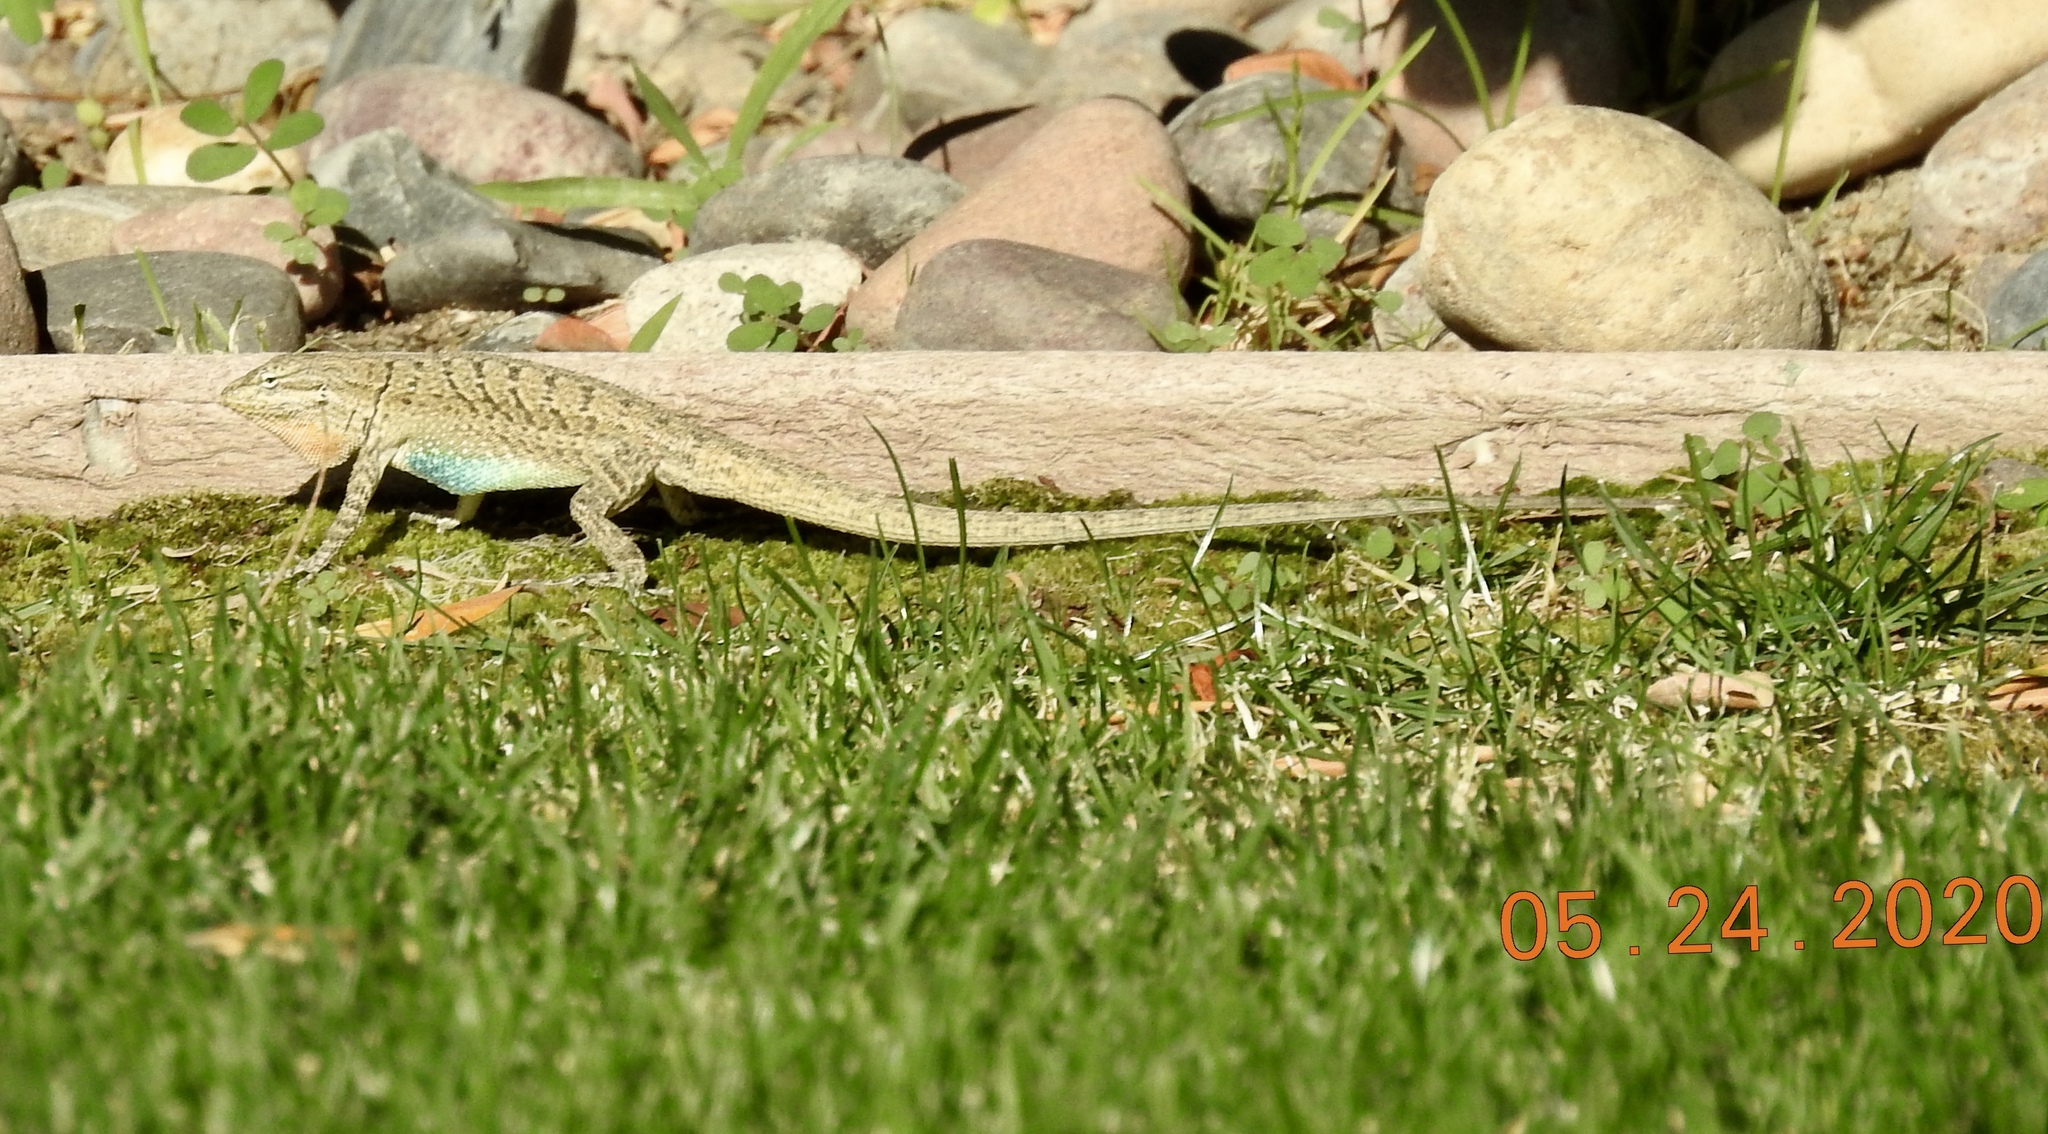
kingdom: Animalia
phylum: Chordata
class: Squamata
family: Phrynosomatidae
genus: Urosaurus
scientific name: Urosaurus graciosus
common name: Long-tailed brush lizard
